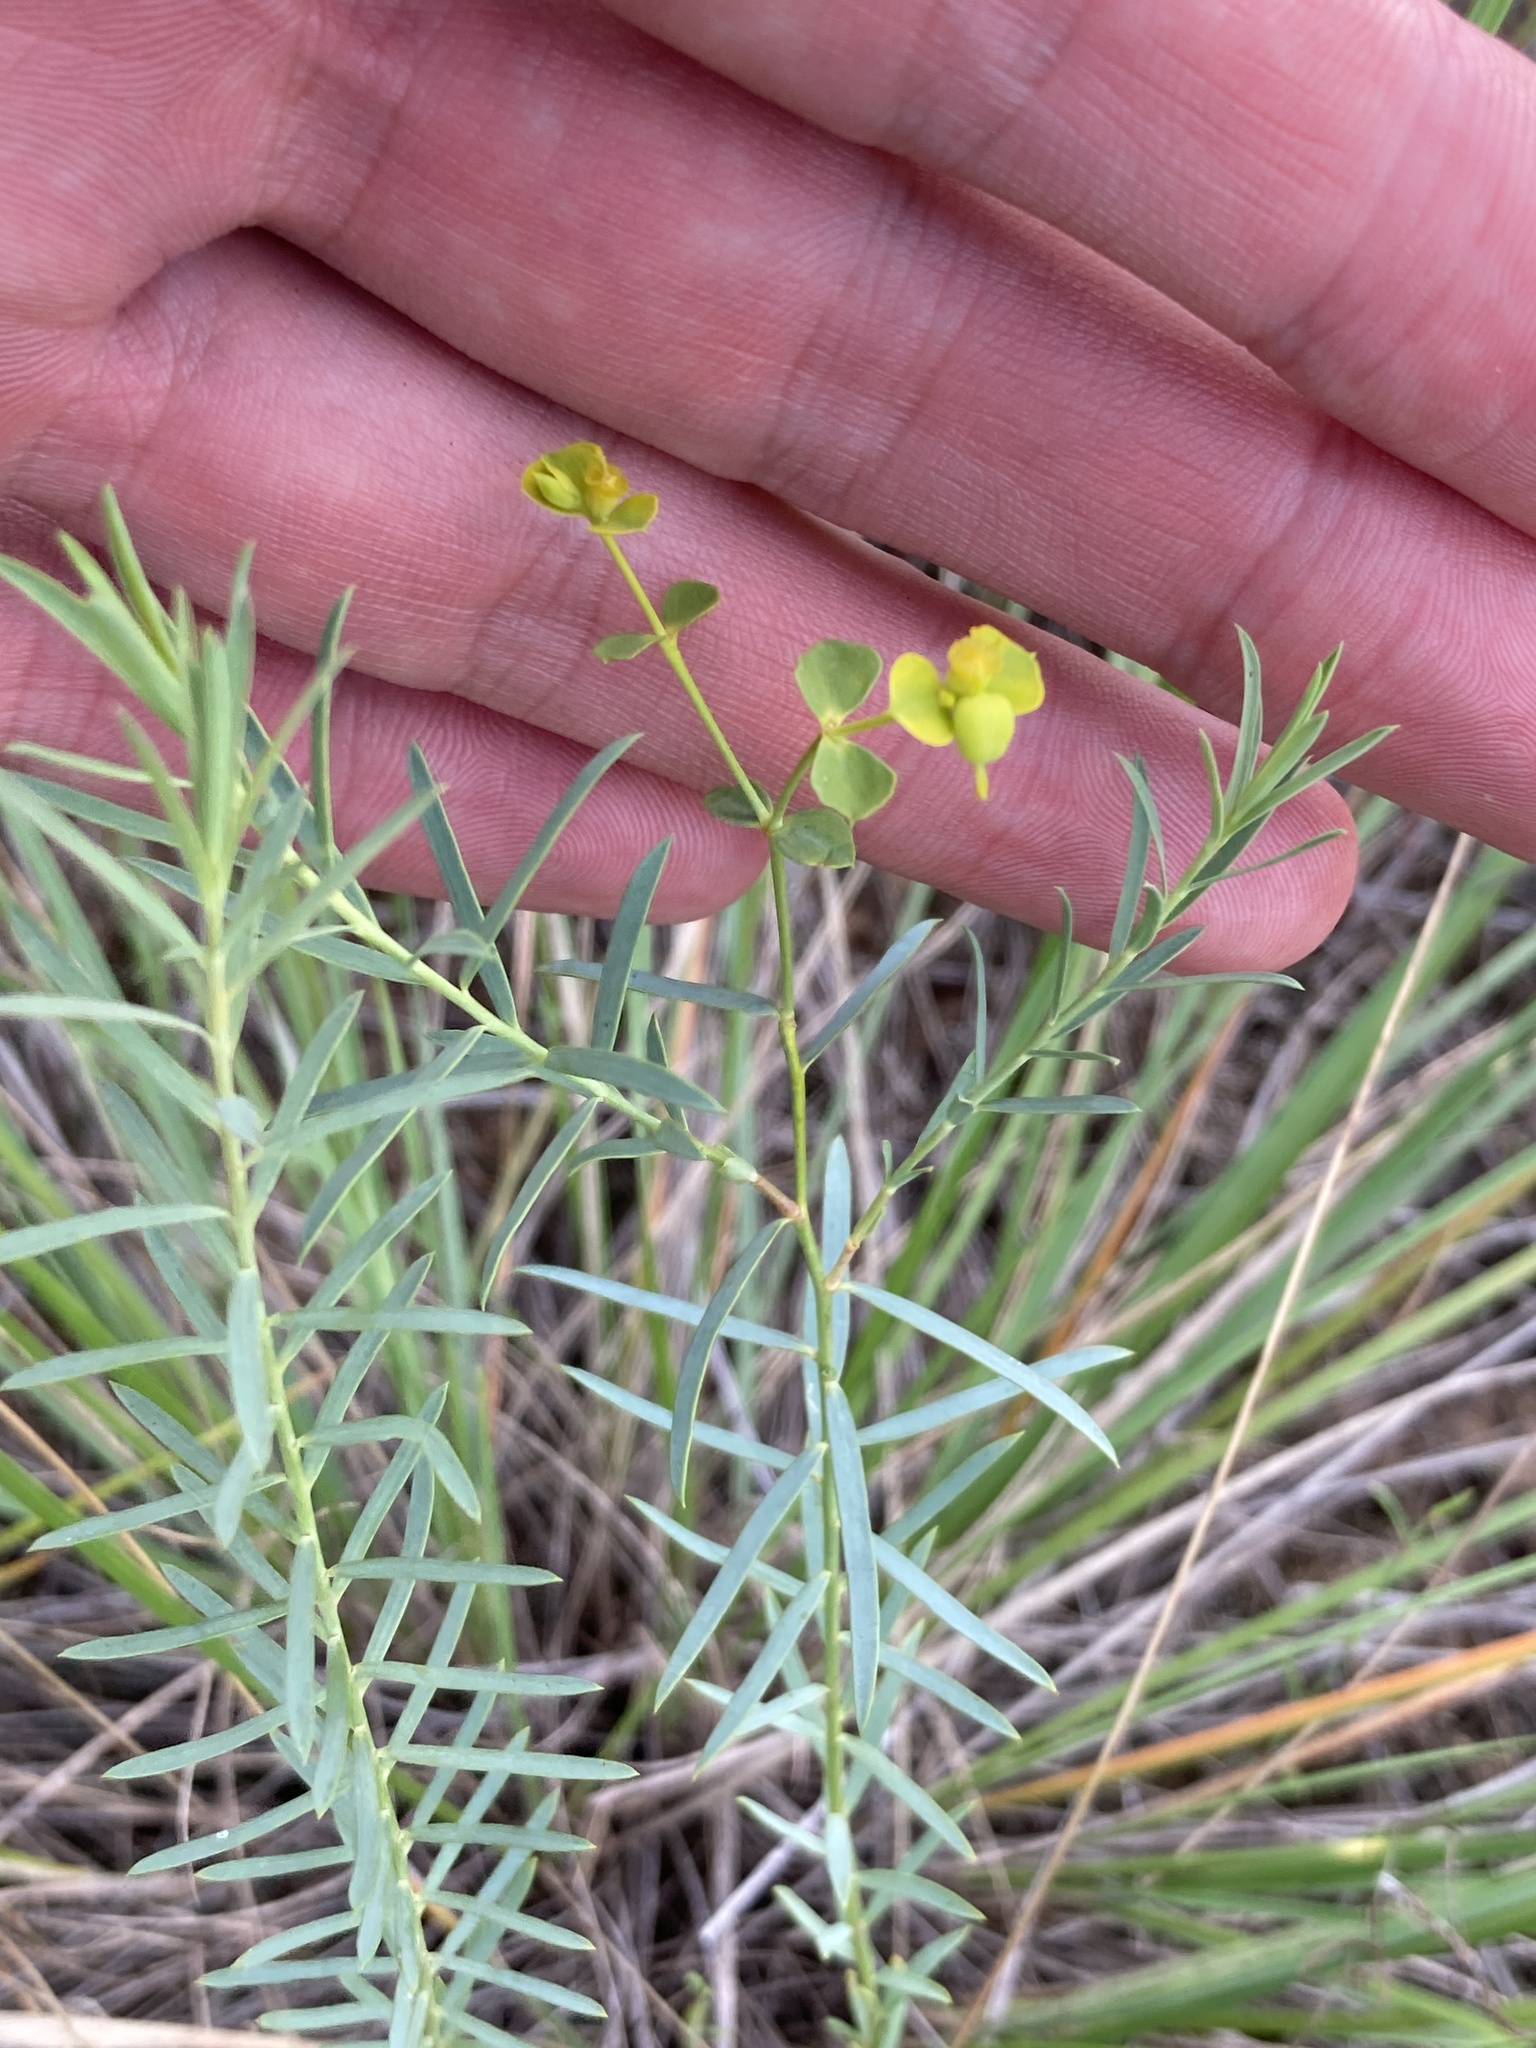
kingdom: Plantae
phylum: Tracheophyta
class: Magnoliopsida
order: Malpighiales
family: Euphorbiaceae
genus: Euphorbia
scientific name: Euphorbia seguieriana
